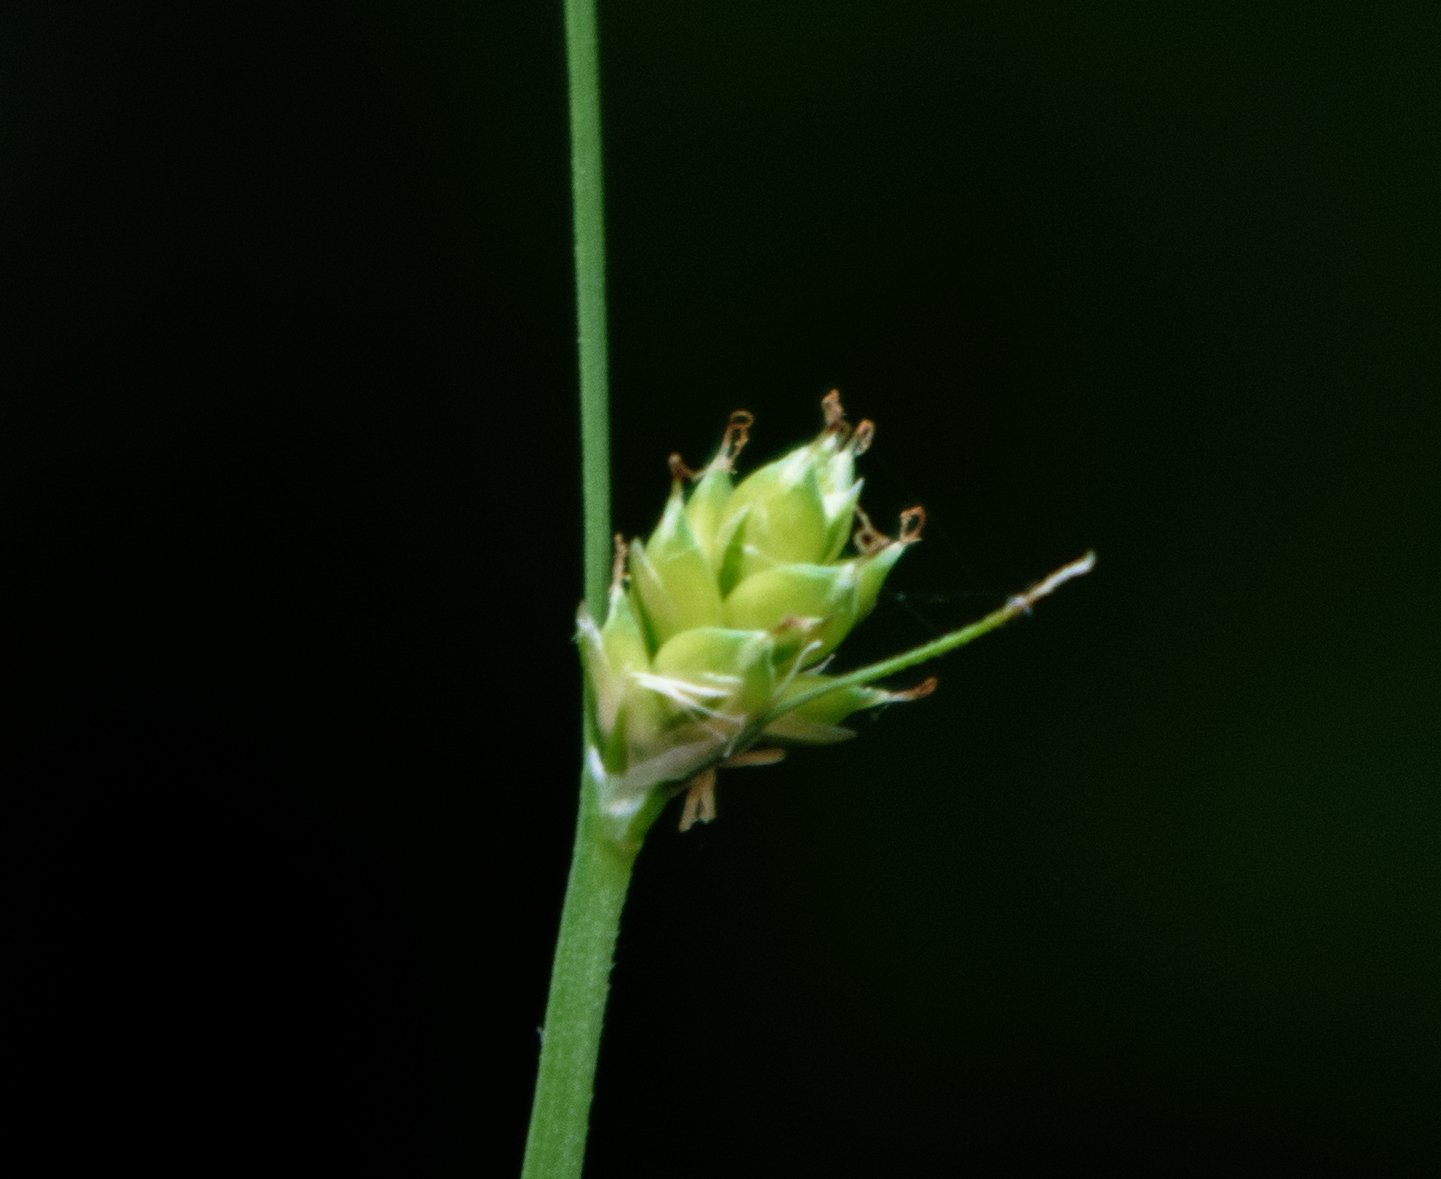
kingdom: Plantae
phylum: Tracheophyta
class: Liliopsida
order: Poales
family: Cyperaceae
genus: Carex
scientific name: Carex brunnescens
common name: Brown sedge
